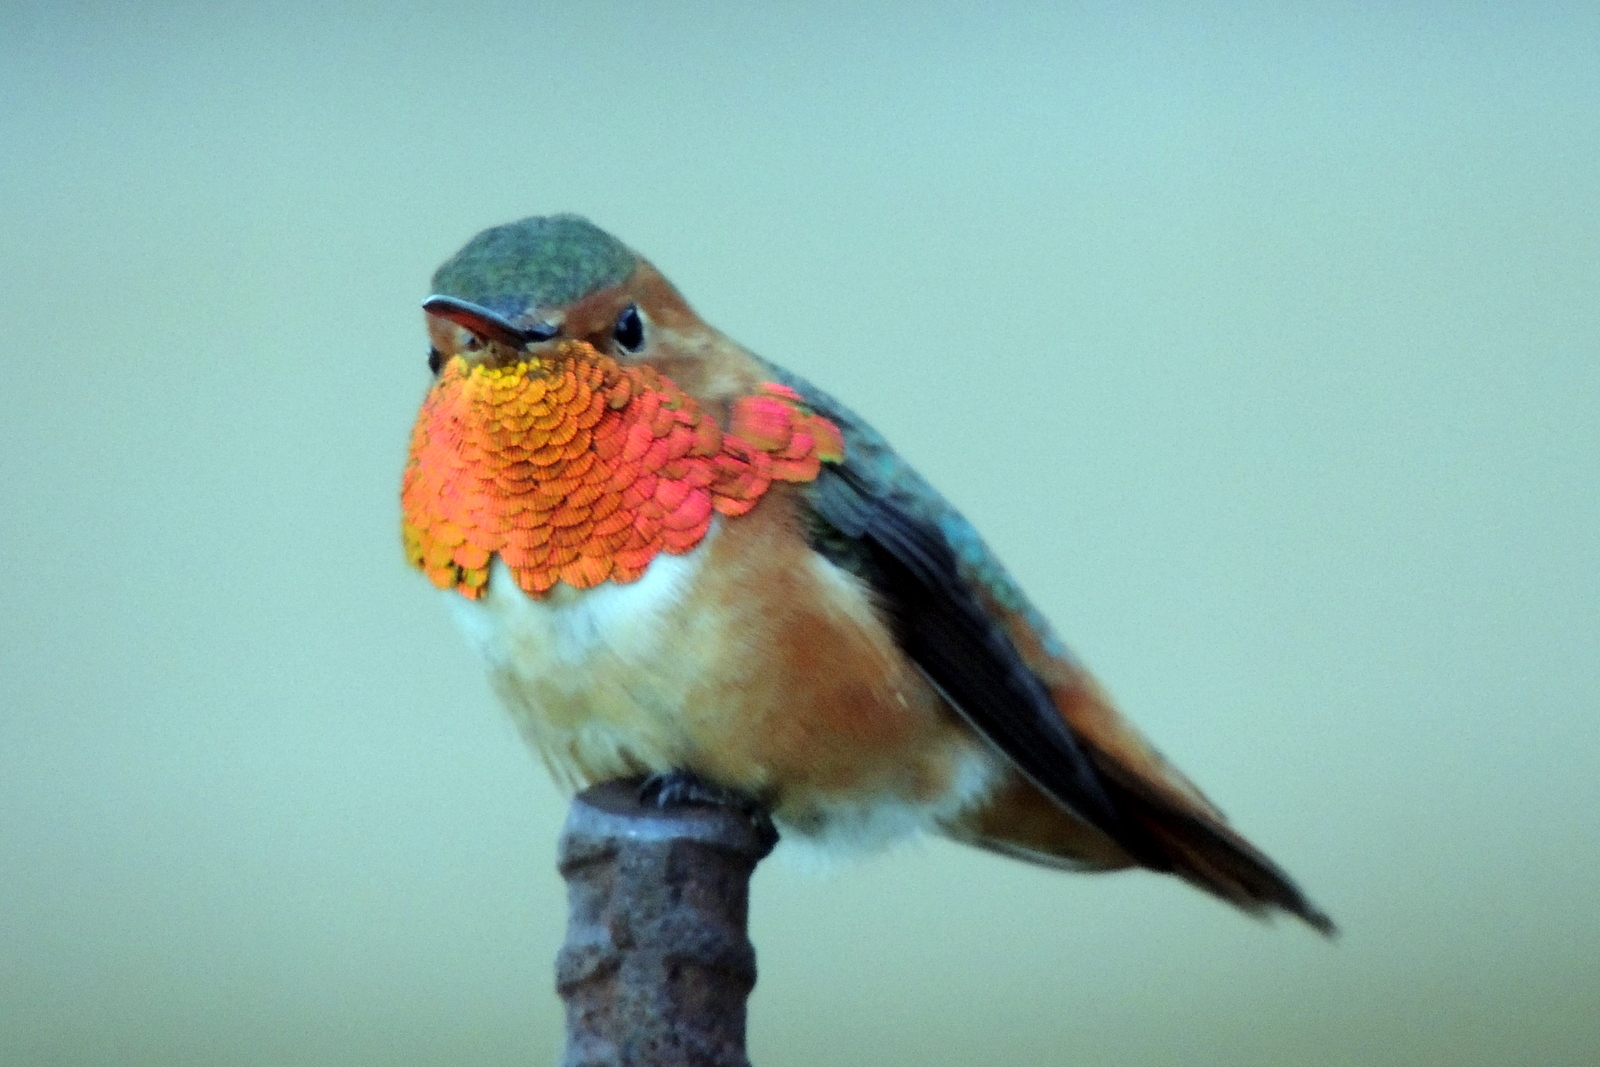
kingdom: Animalia
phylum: Chordata
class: Aves
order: Apodiformes
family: Trochilidae
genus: Selasphorus
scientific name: Selasphorus sasin
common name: Allen's hummingbird
